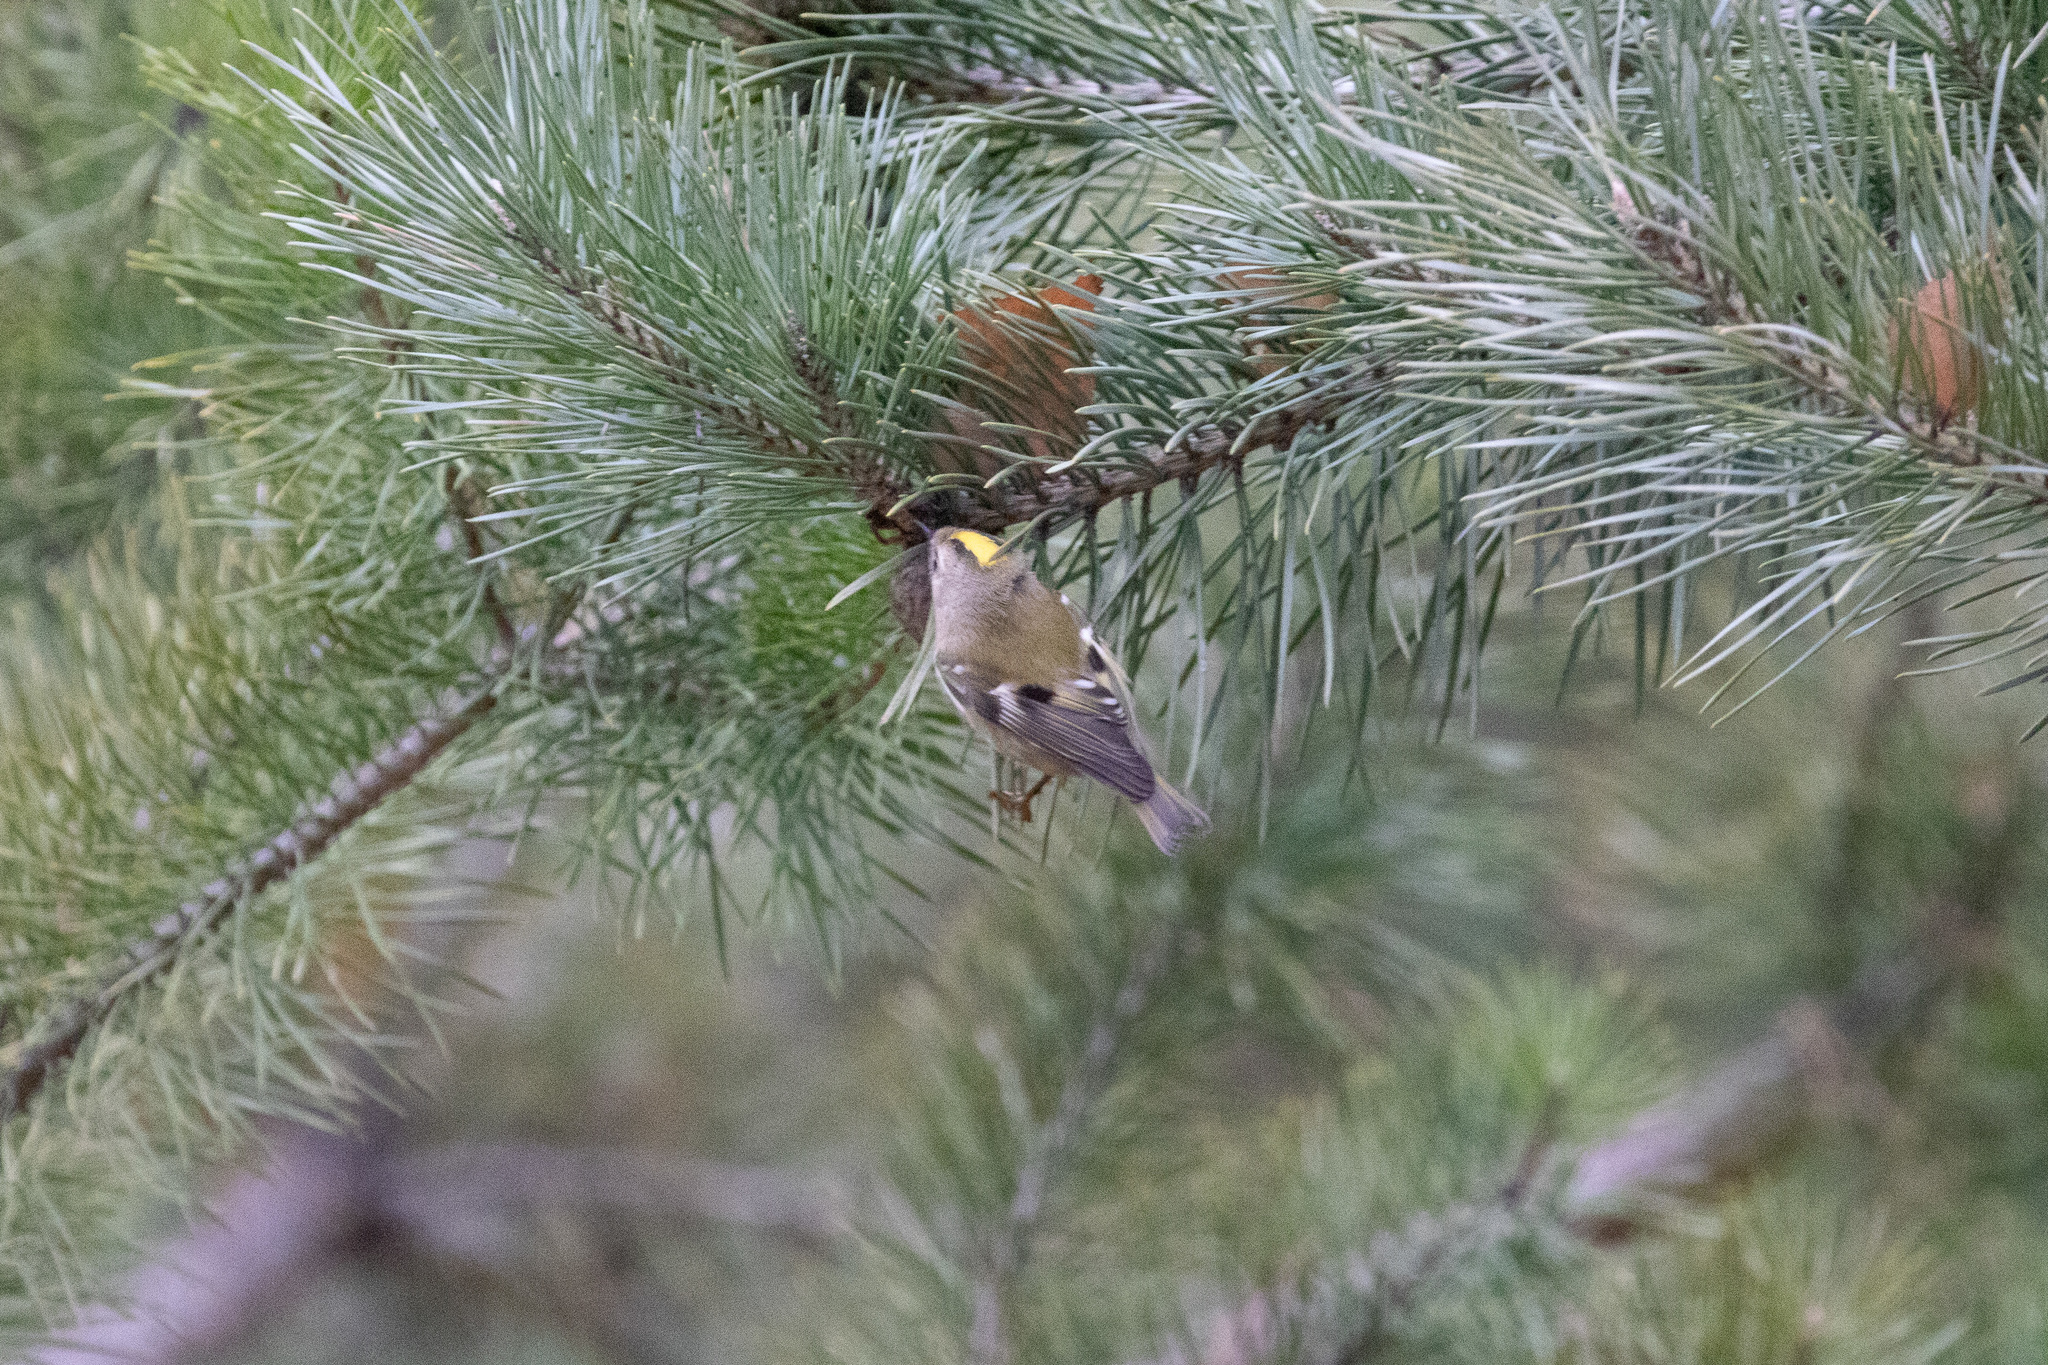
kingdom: Animalia
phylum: Chordata
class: Aves
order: Passeriformes
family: Regulidae
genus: Regulus
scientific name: Regulus regulus
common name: Goldcrest
